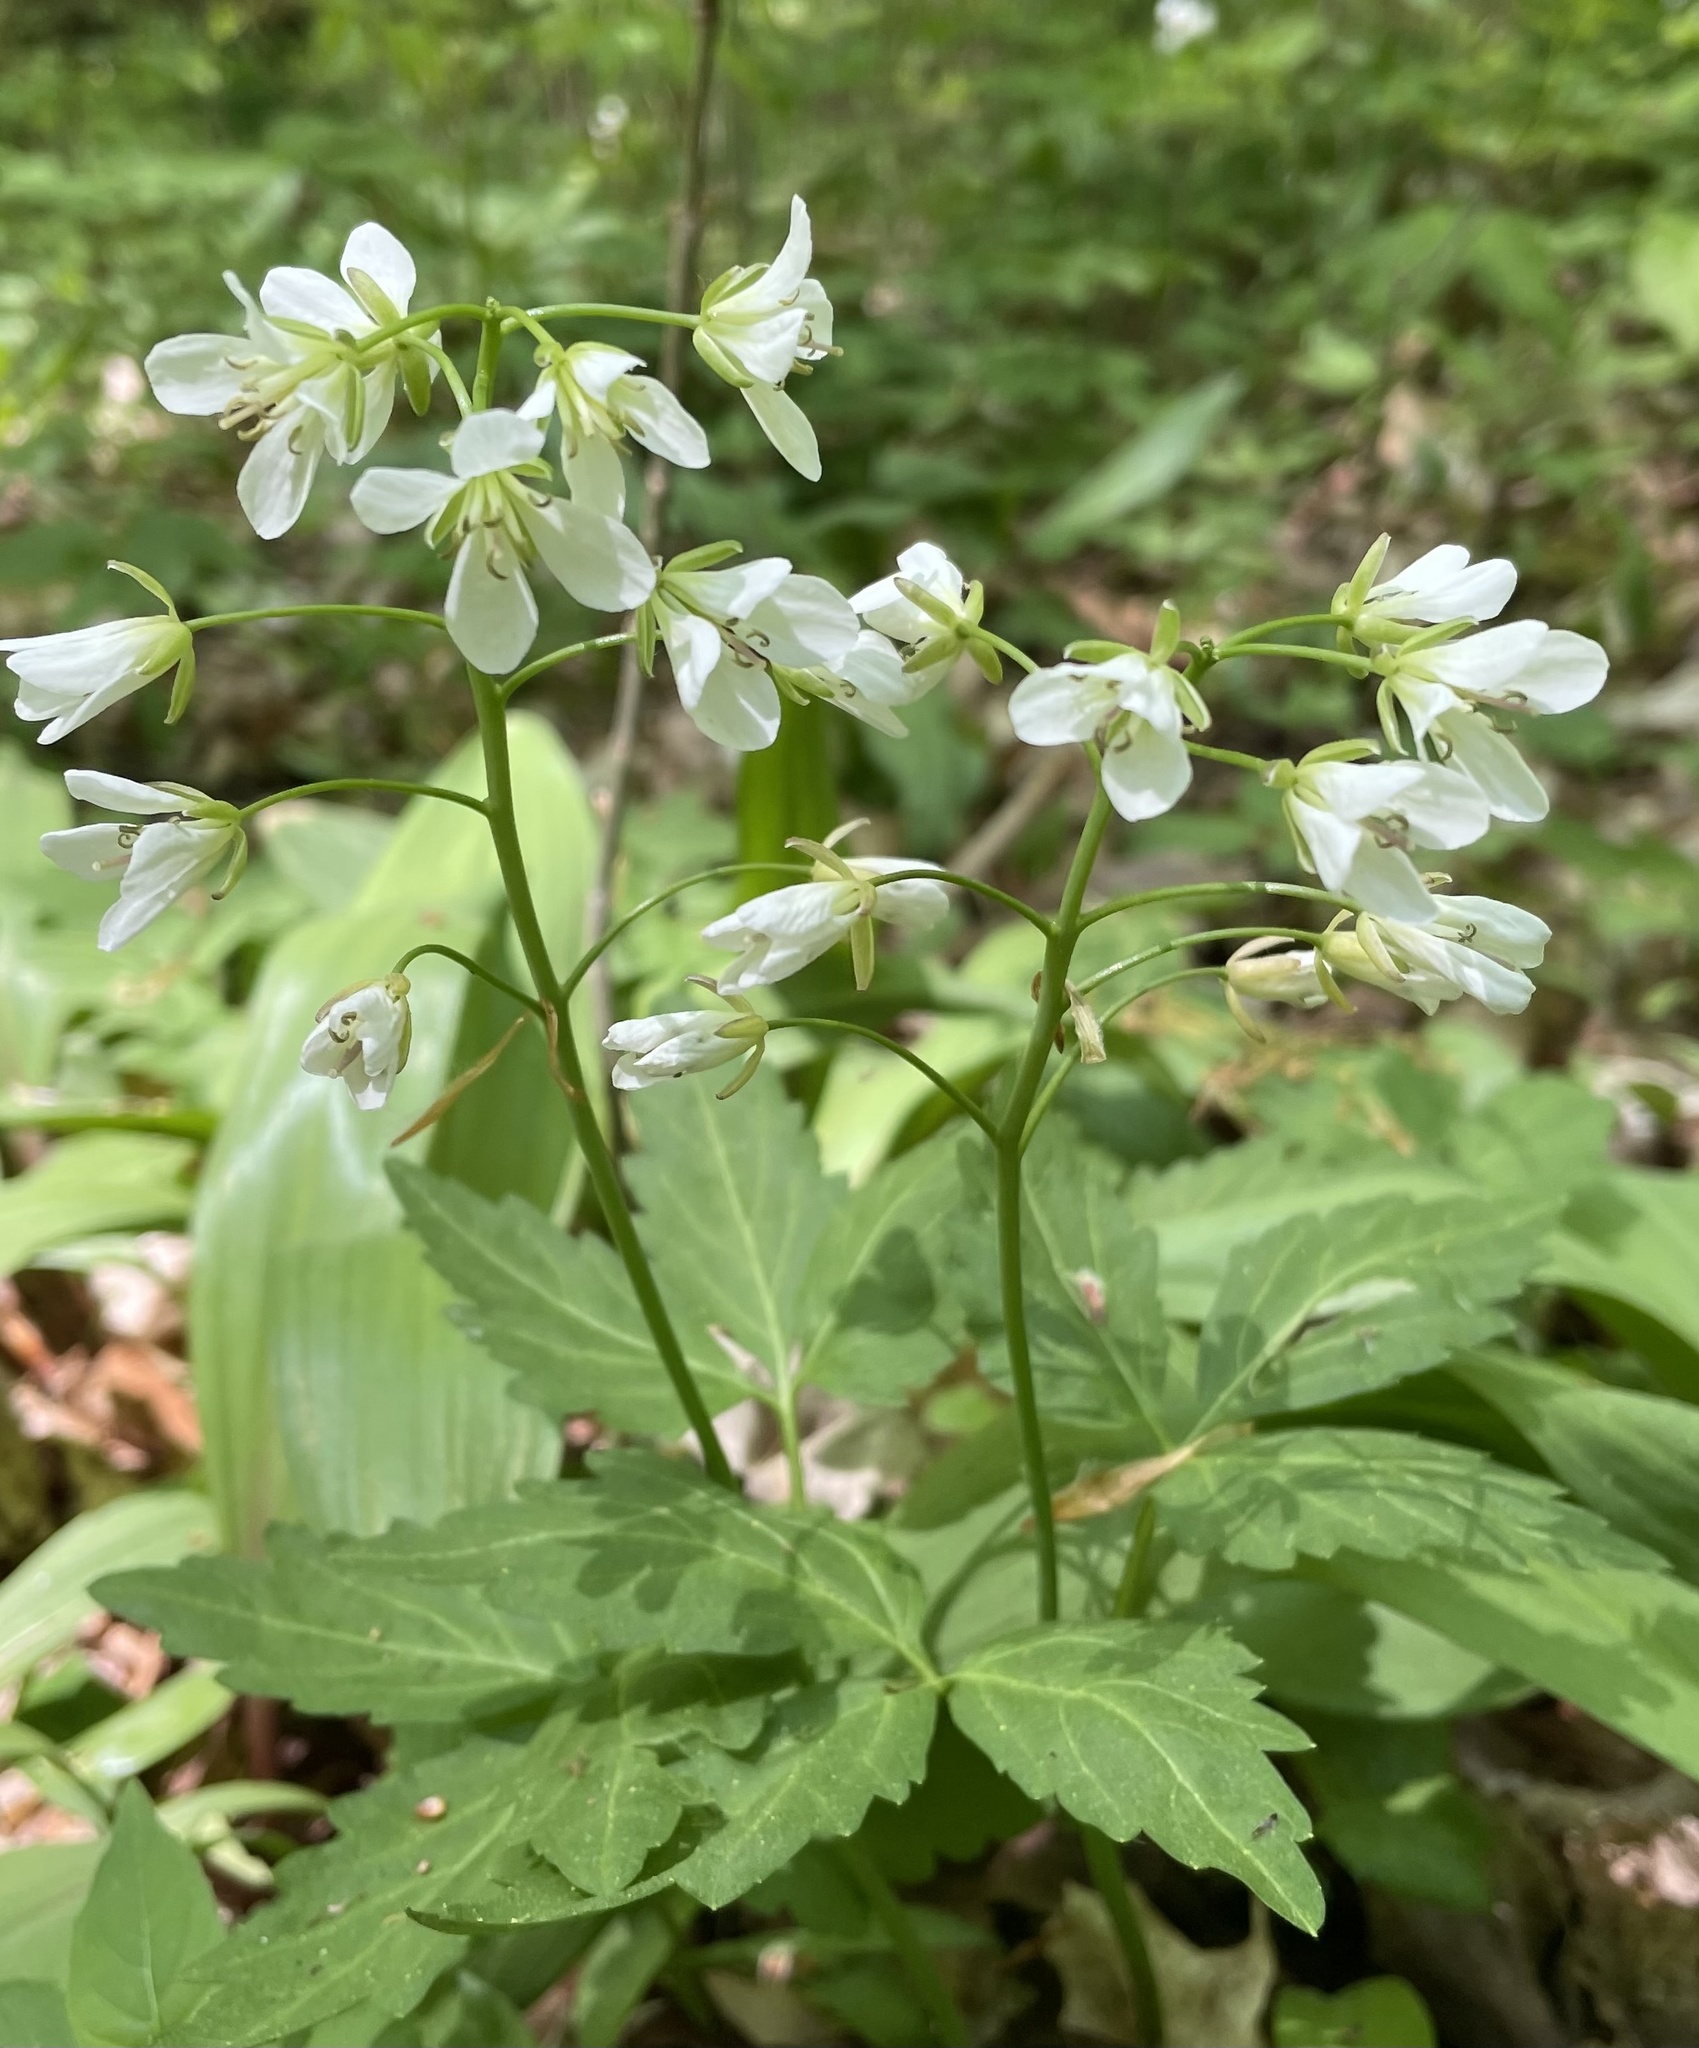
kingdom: Plantae
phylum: Tracheophyta
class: Magnoliopsida
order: Brassicales
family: Brassicaceae
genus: Cardamine
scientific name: Cardamine diphylla
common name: Broad-leaved toothwort
